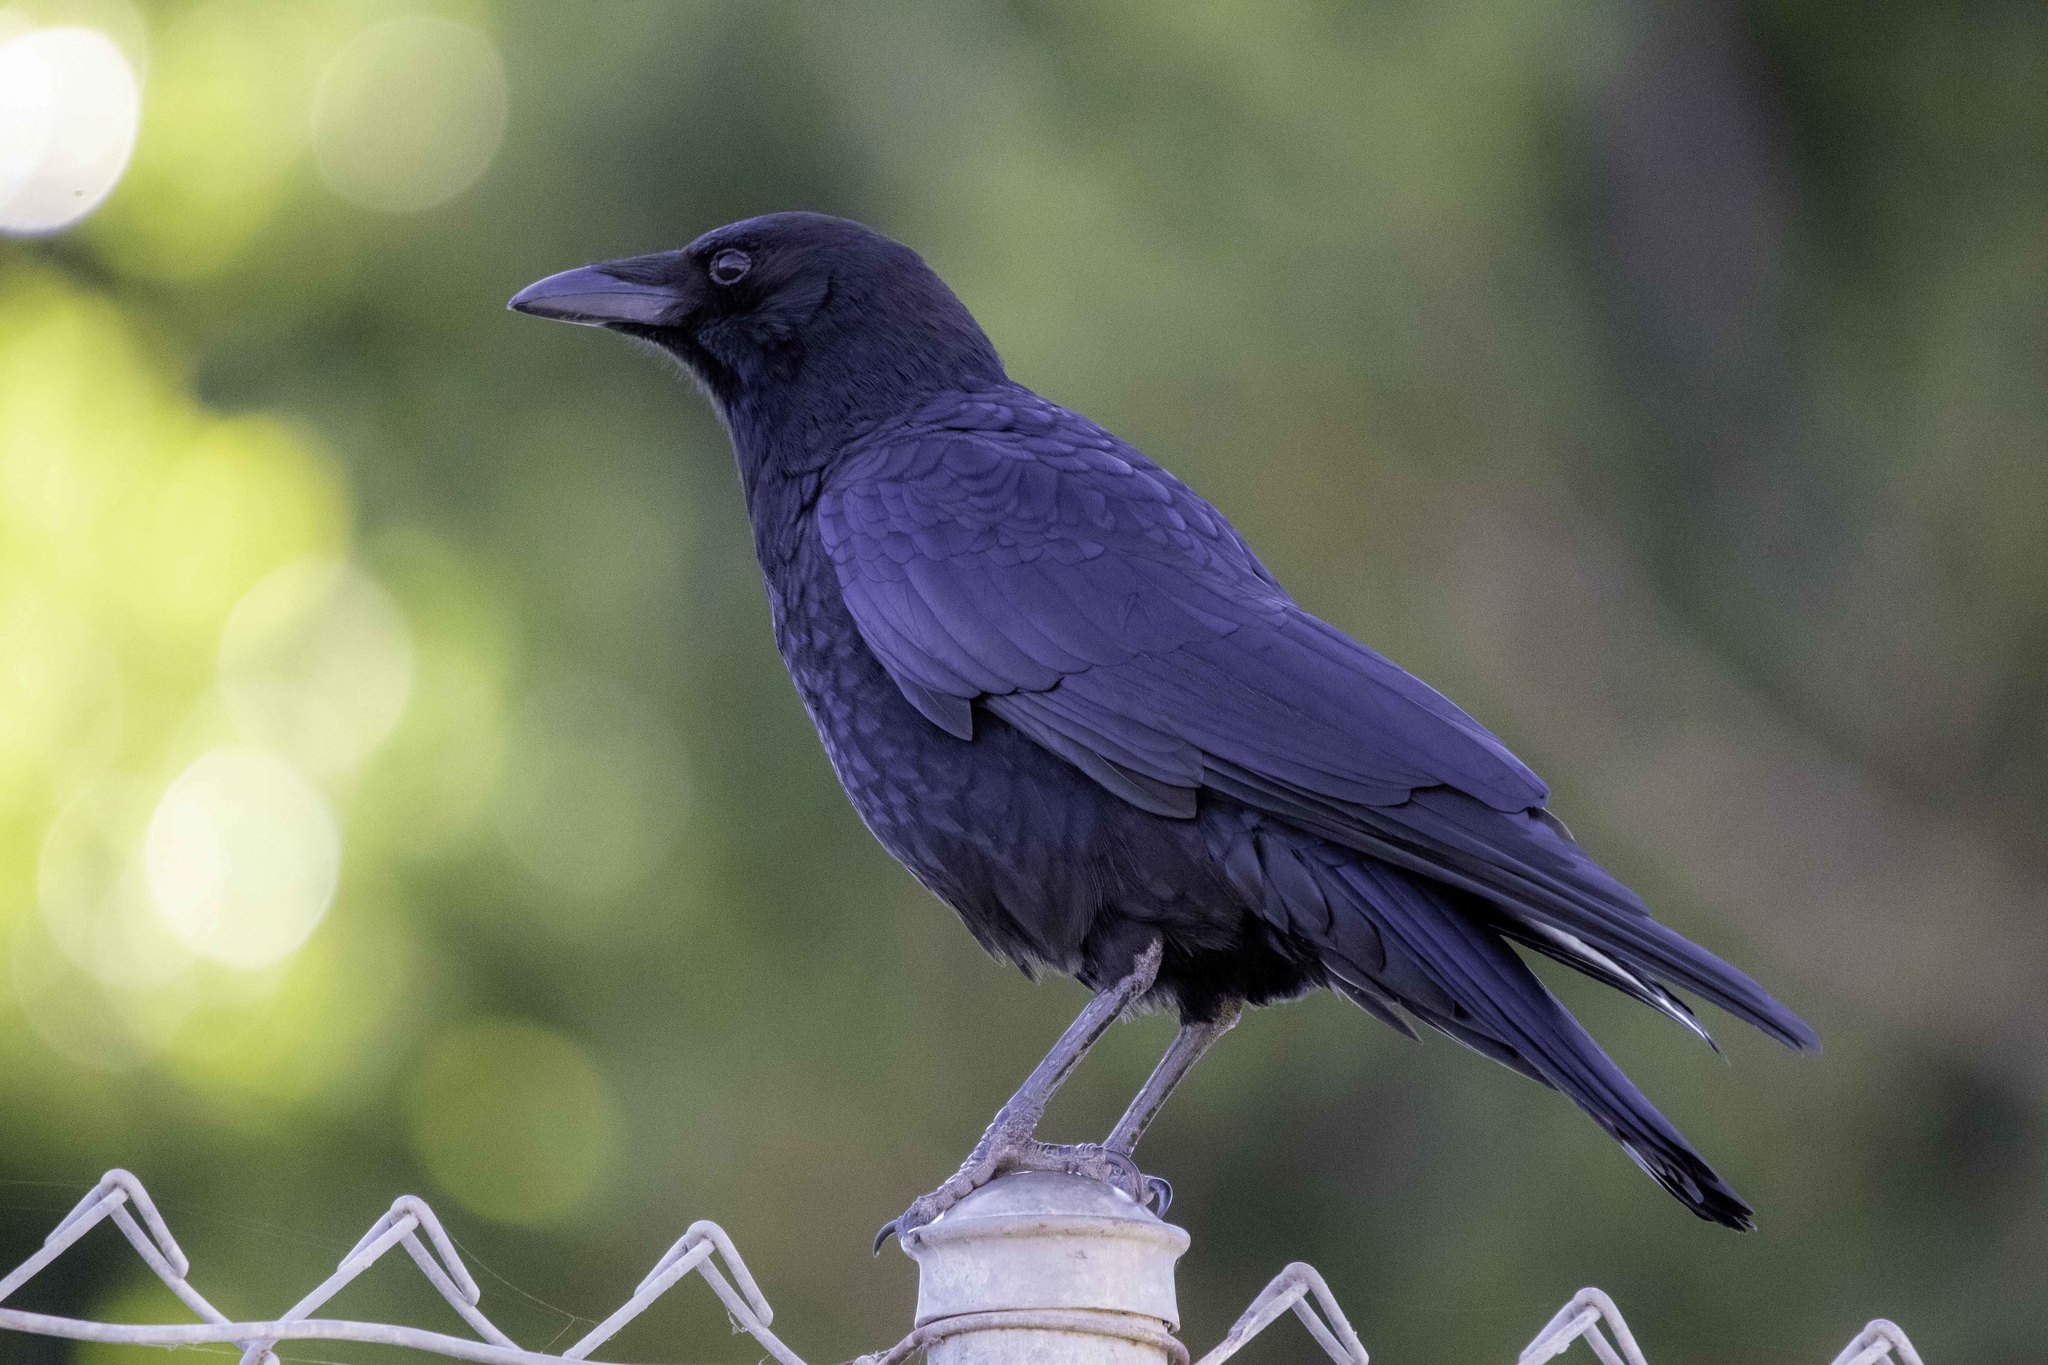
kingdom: Animalia
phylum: Chordata
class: Aves
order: Passeriformes
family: Corvidae
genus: Corvus
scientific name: Corvus brachyrhynchos
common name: American crow
